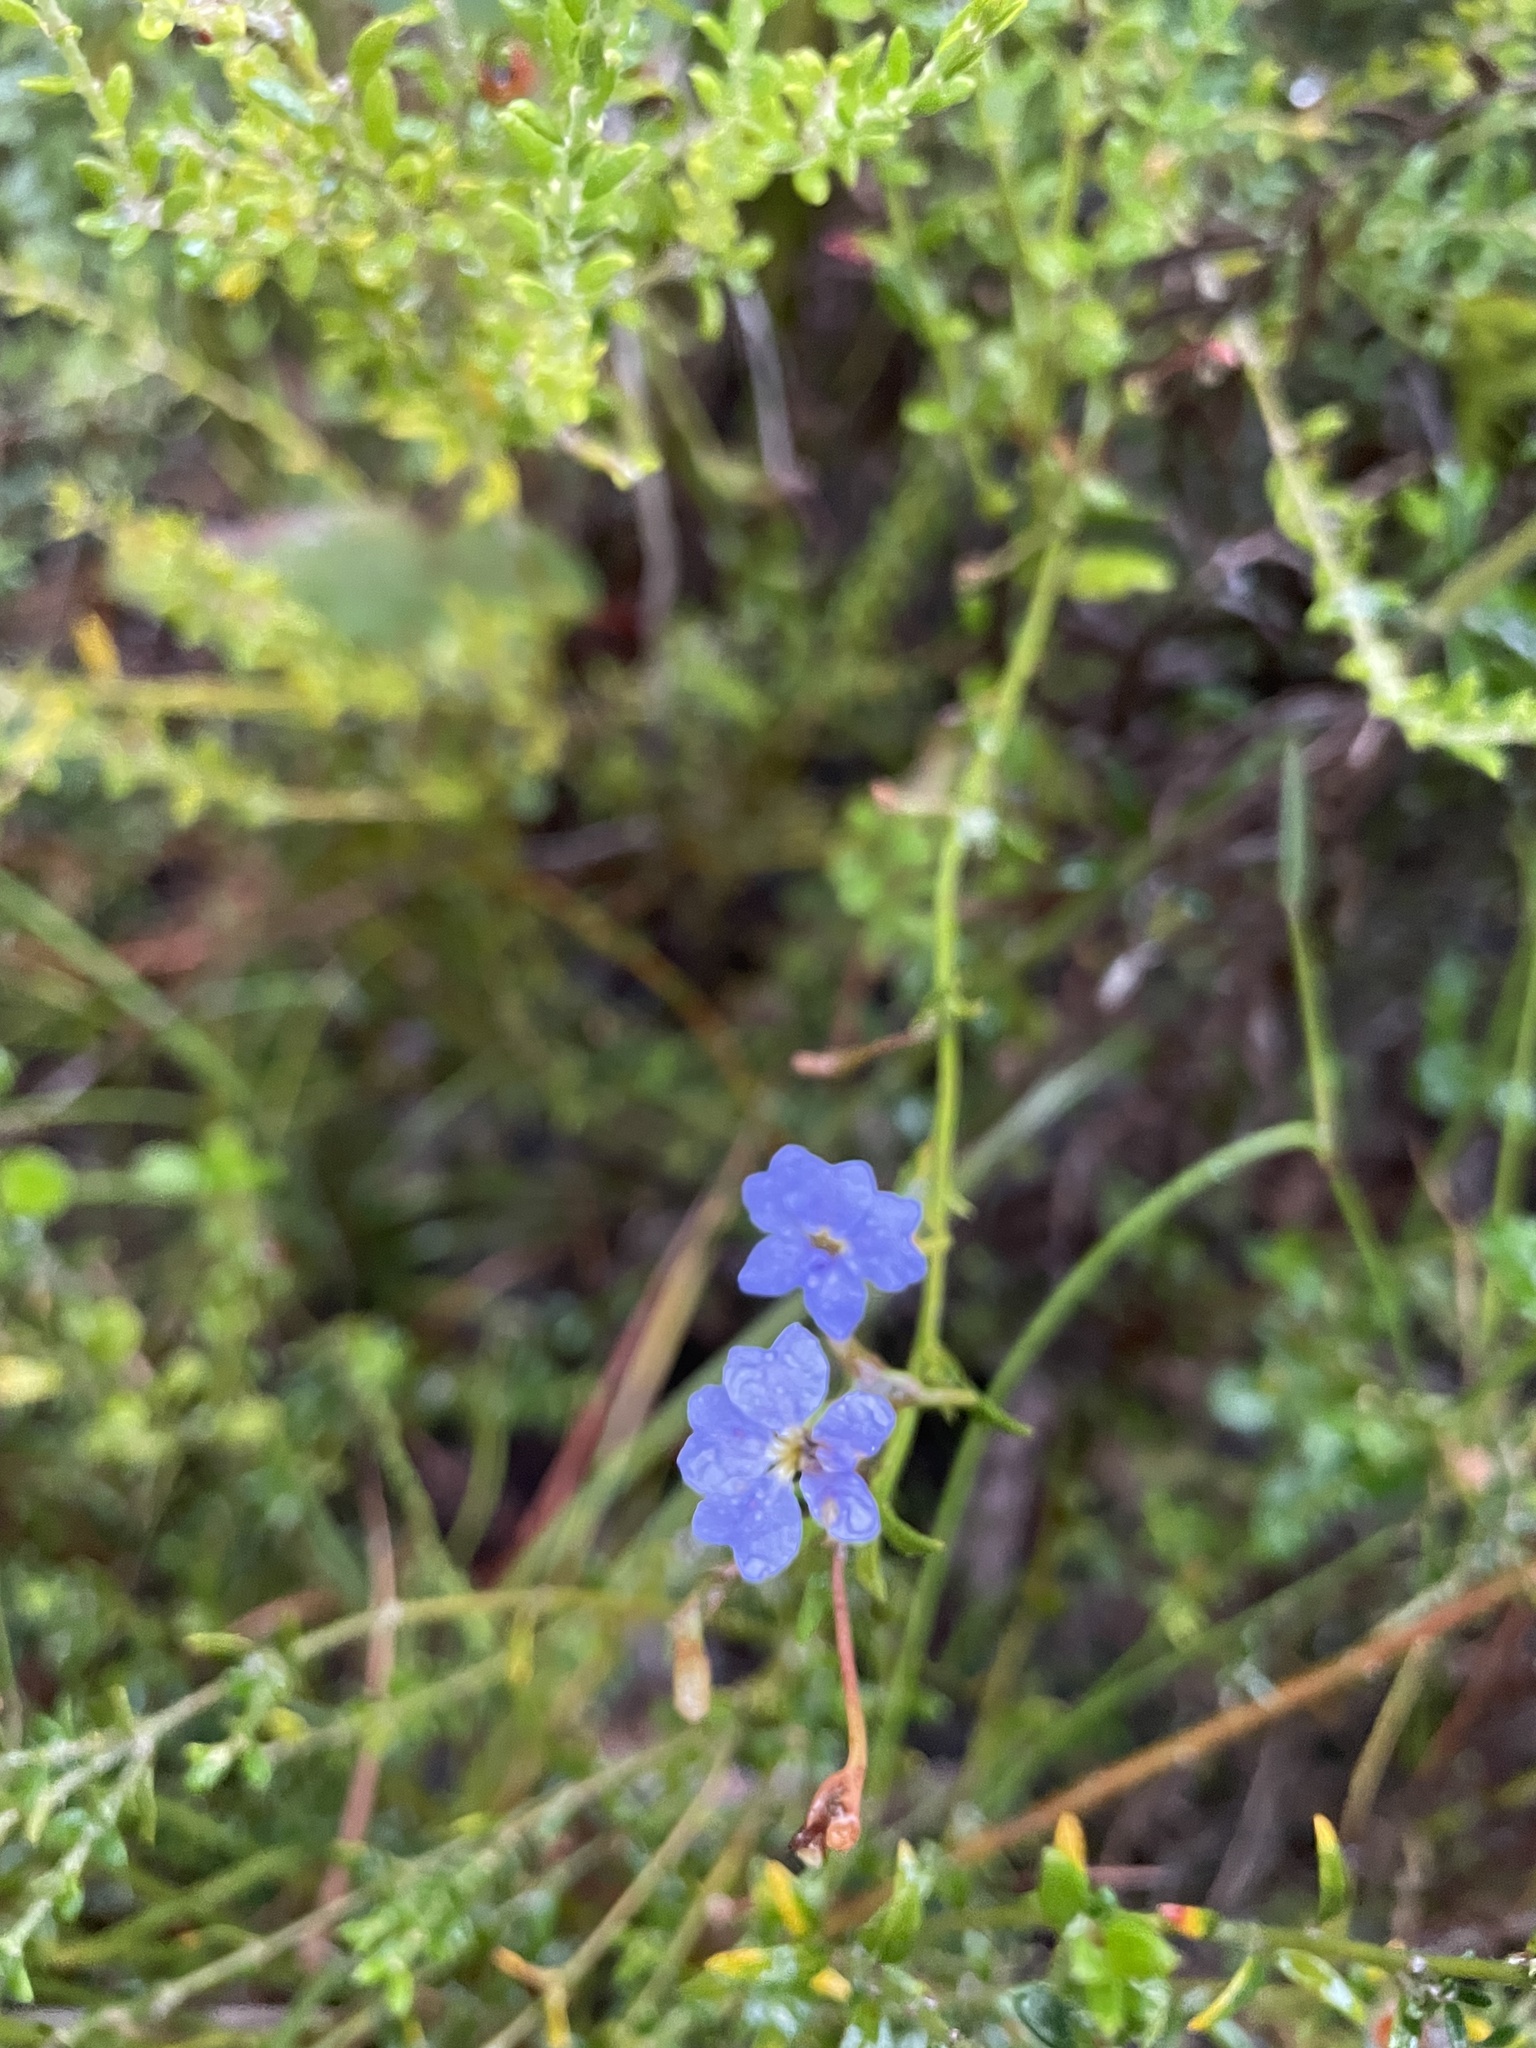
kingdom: Plantae
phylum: Tracheophyta
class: Magnoliopsida
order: Asterales
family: Goodeniaceae
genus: Dampiera
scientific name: Dampiera stricta
